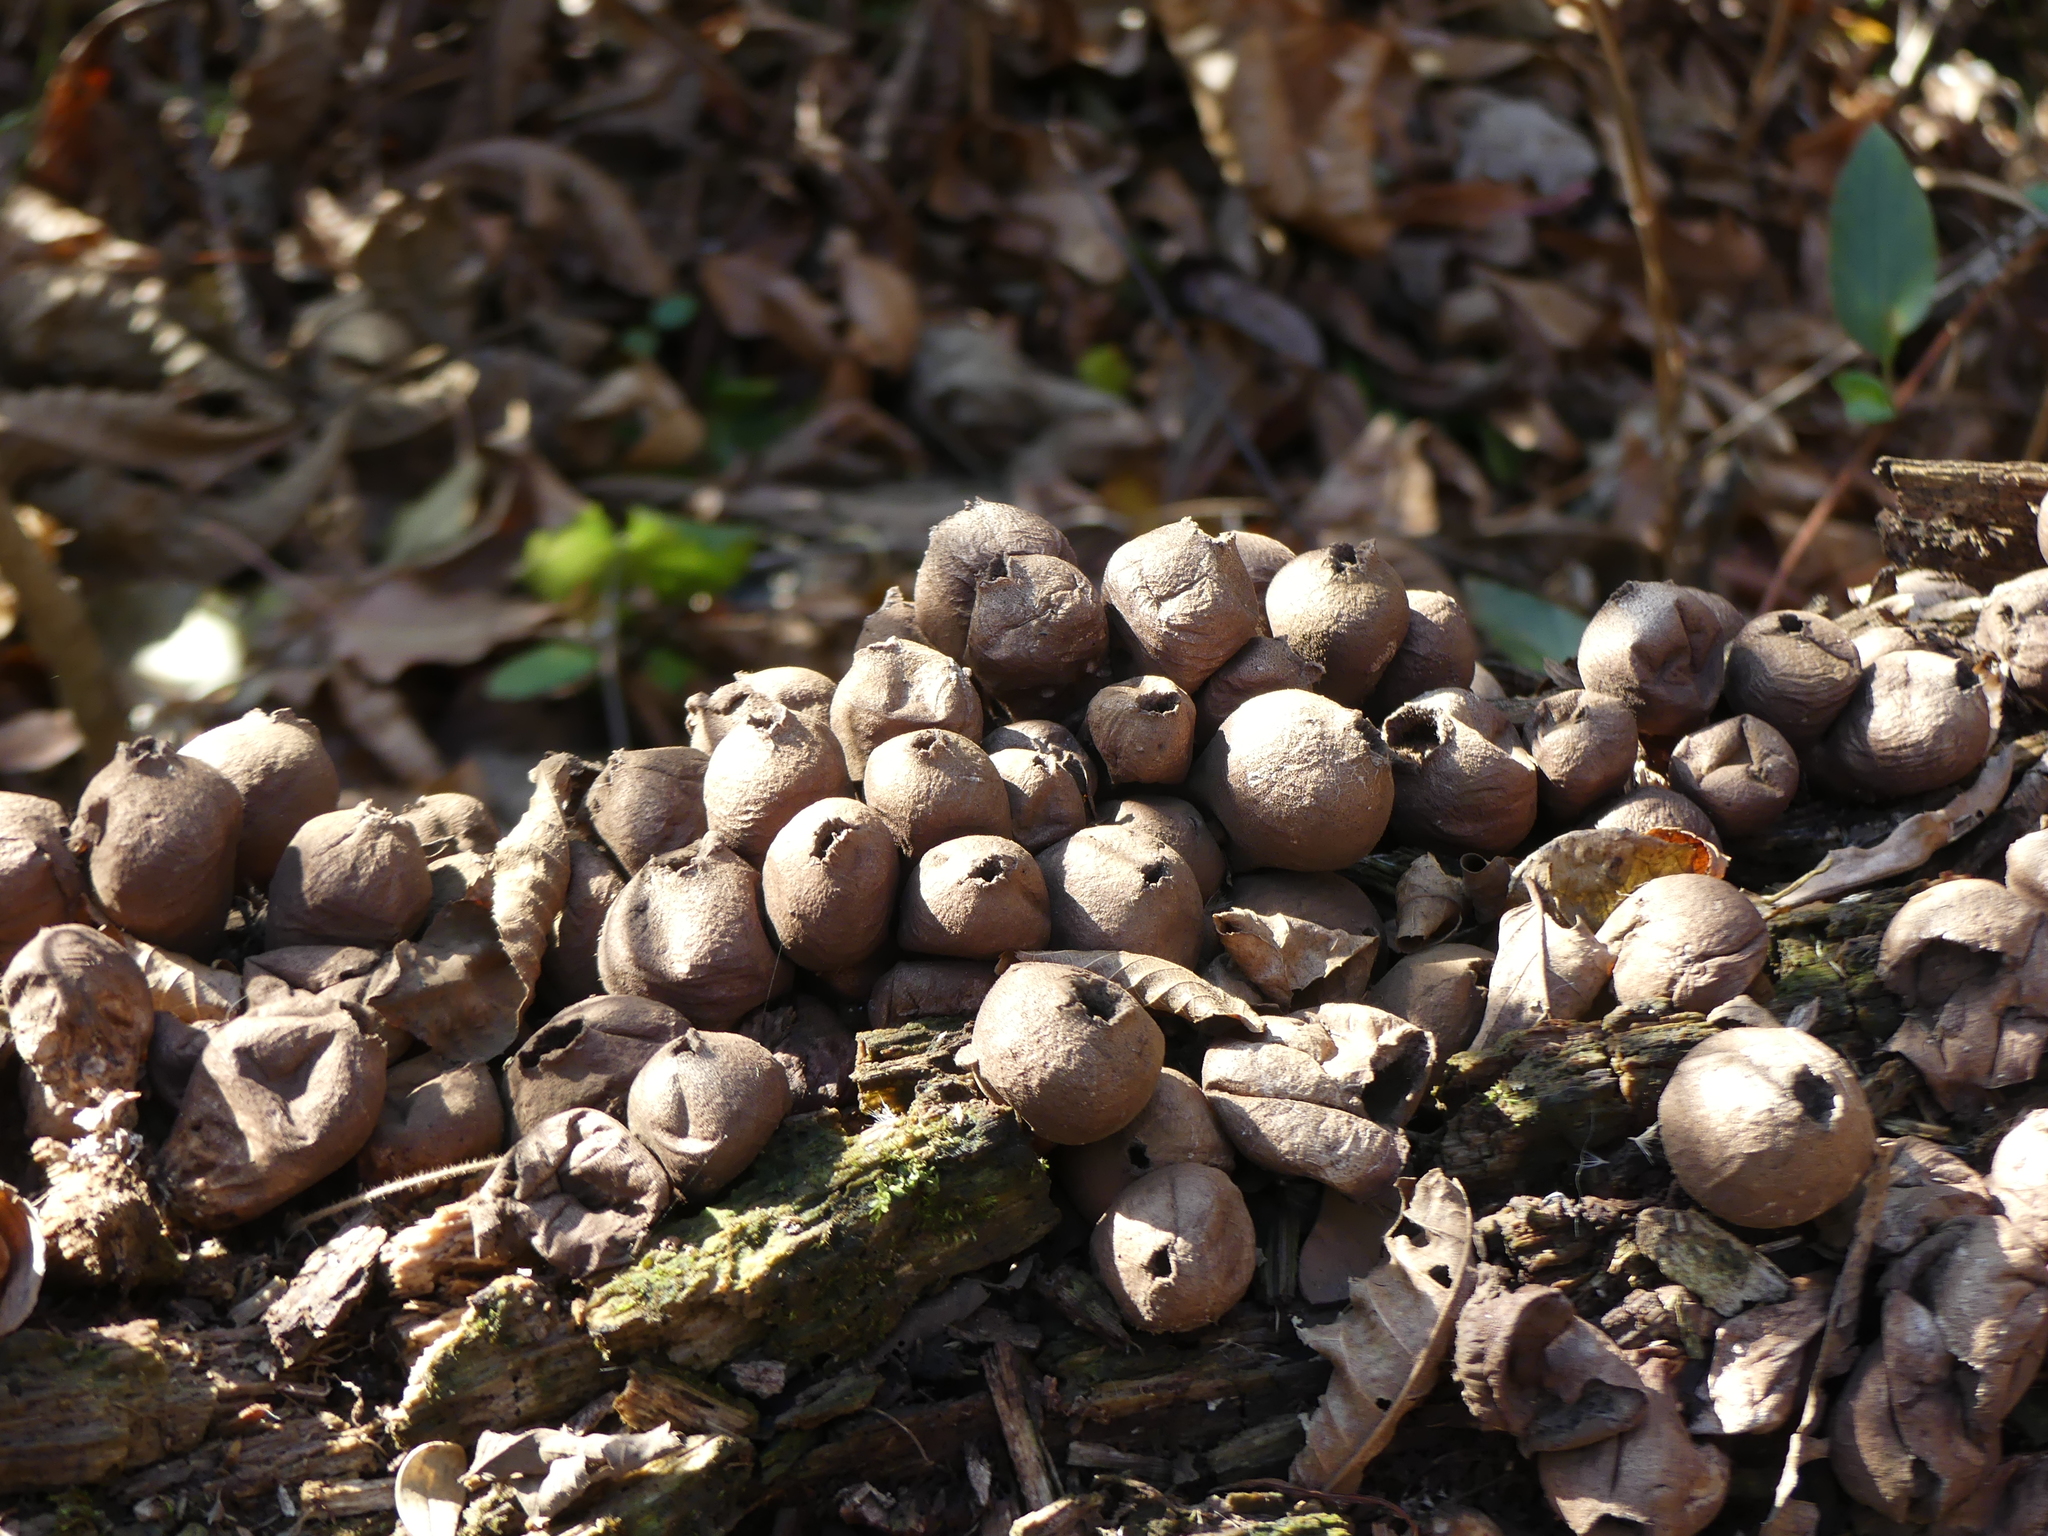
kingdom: Fungi
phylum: Basidiomycota
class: Agaricomycetes
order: Agaricales
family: Lycoperdaceae
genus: Apioperdon
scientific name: Apioperdon pyriforme
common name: Pear-shaped puffball
